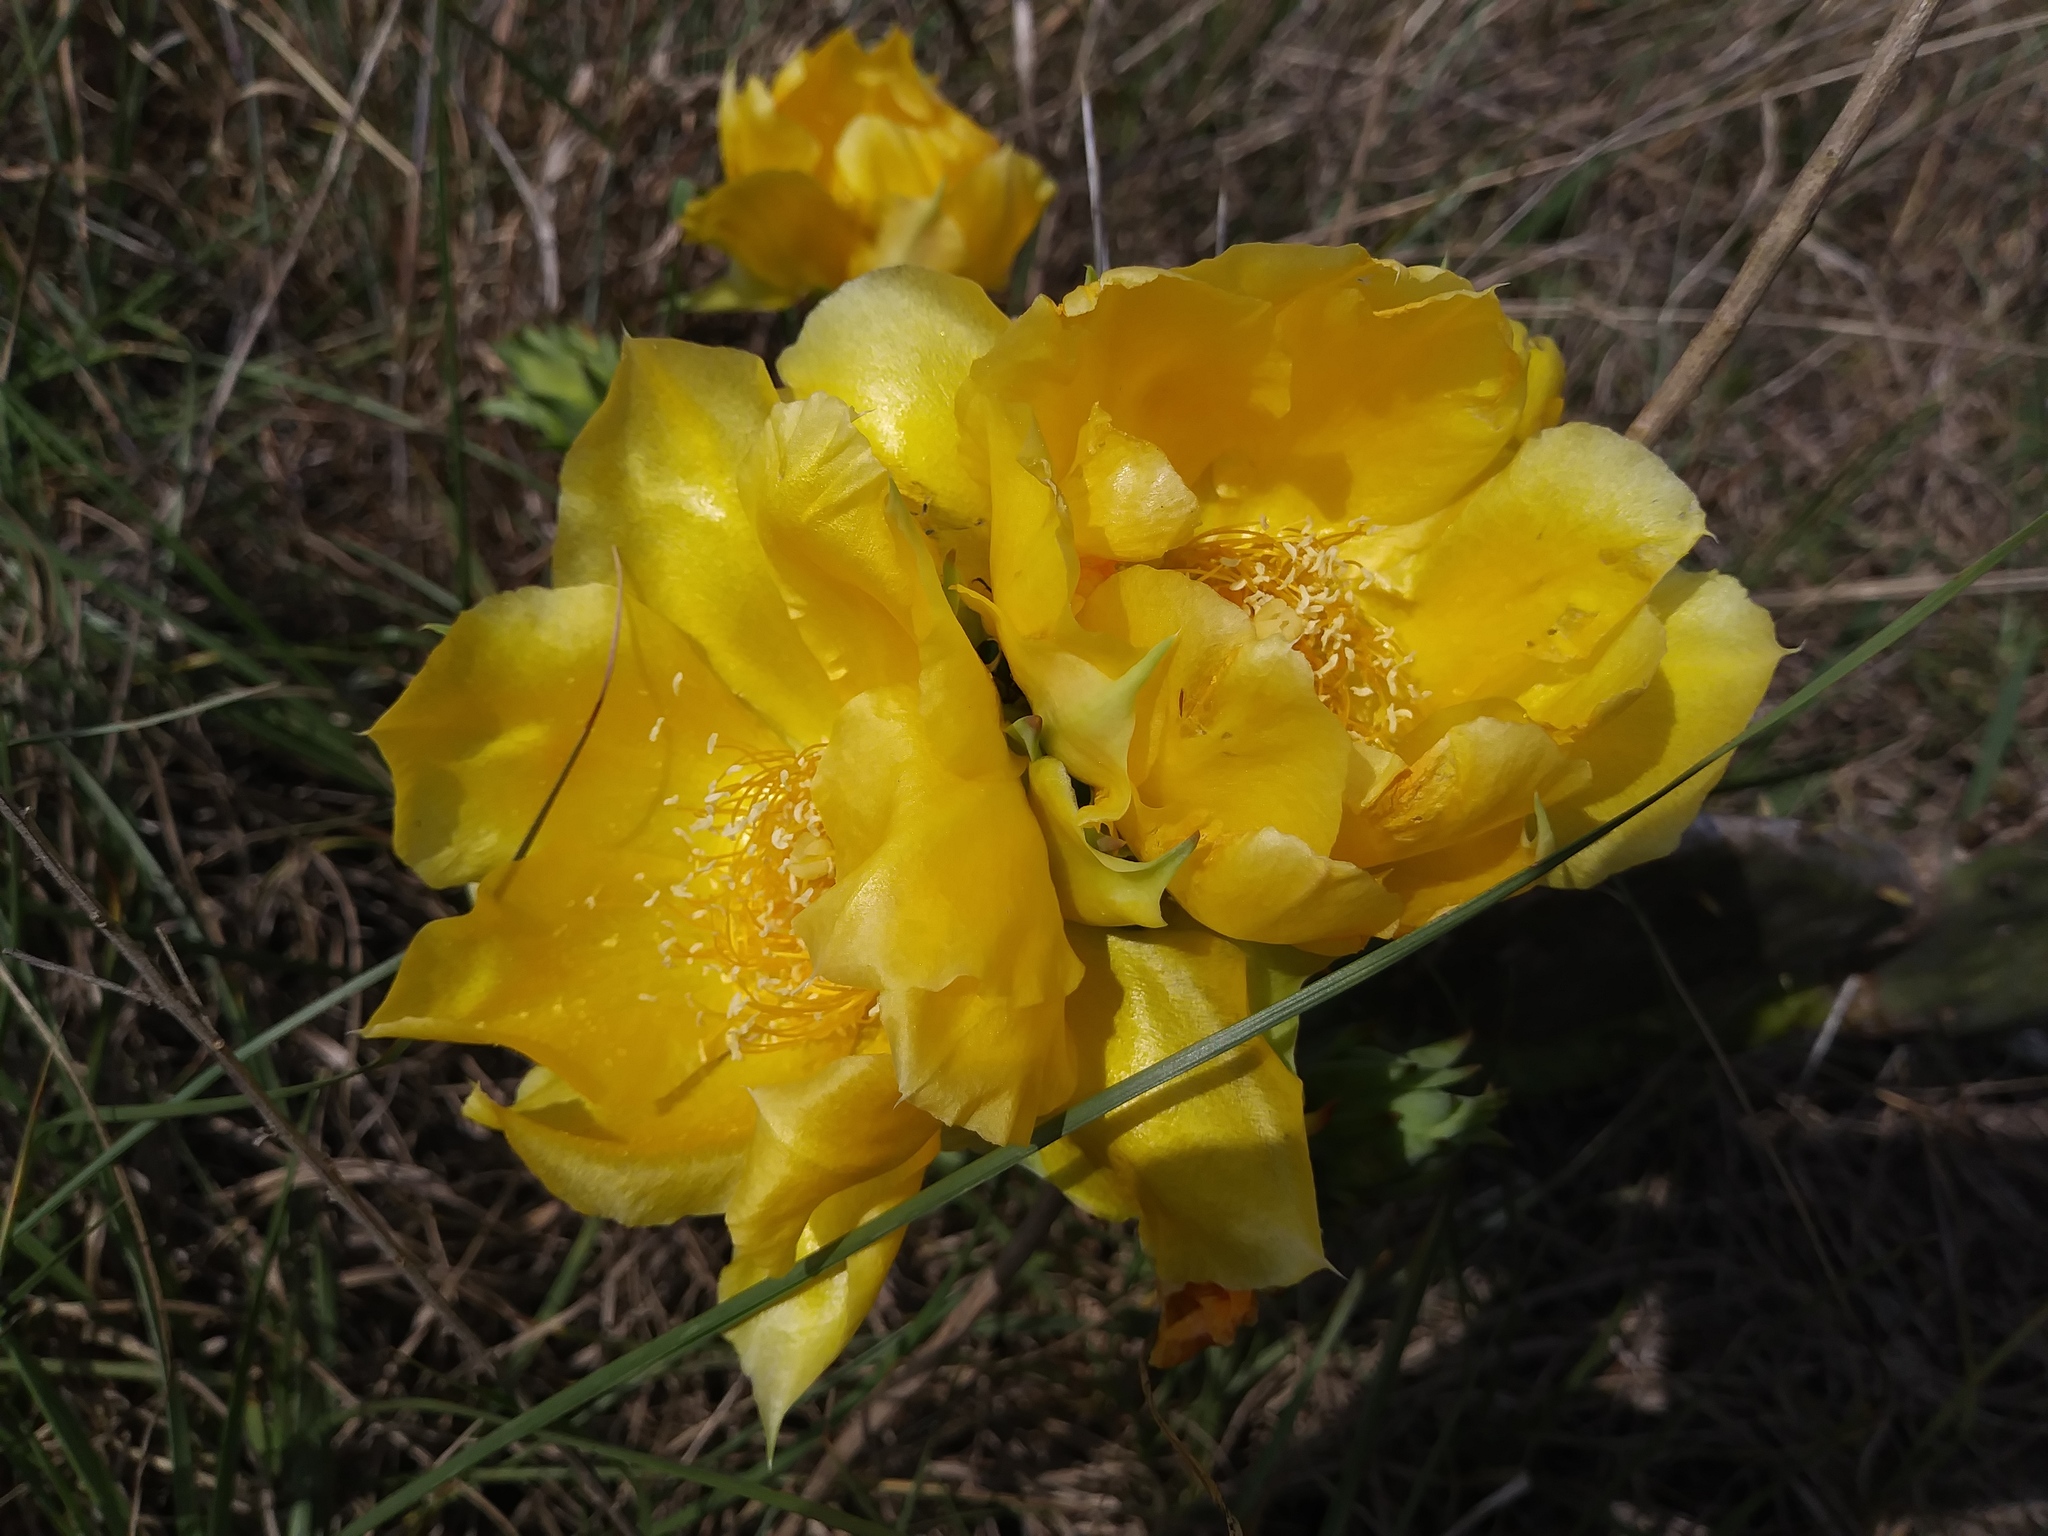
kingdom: Plantae
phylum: Tracheophyta
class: Magnoliopsida
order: Caryophyllales
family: Cactaceae
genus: Opuntia
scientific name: Opuntia austrina
